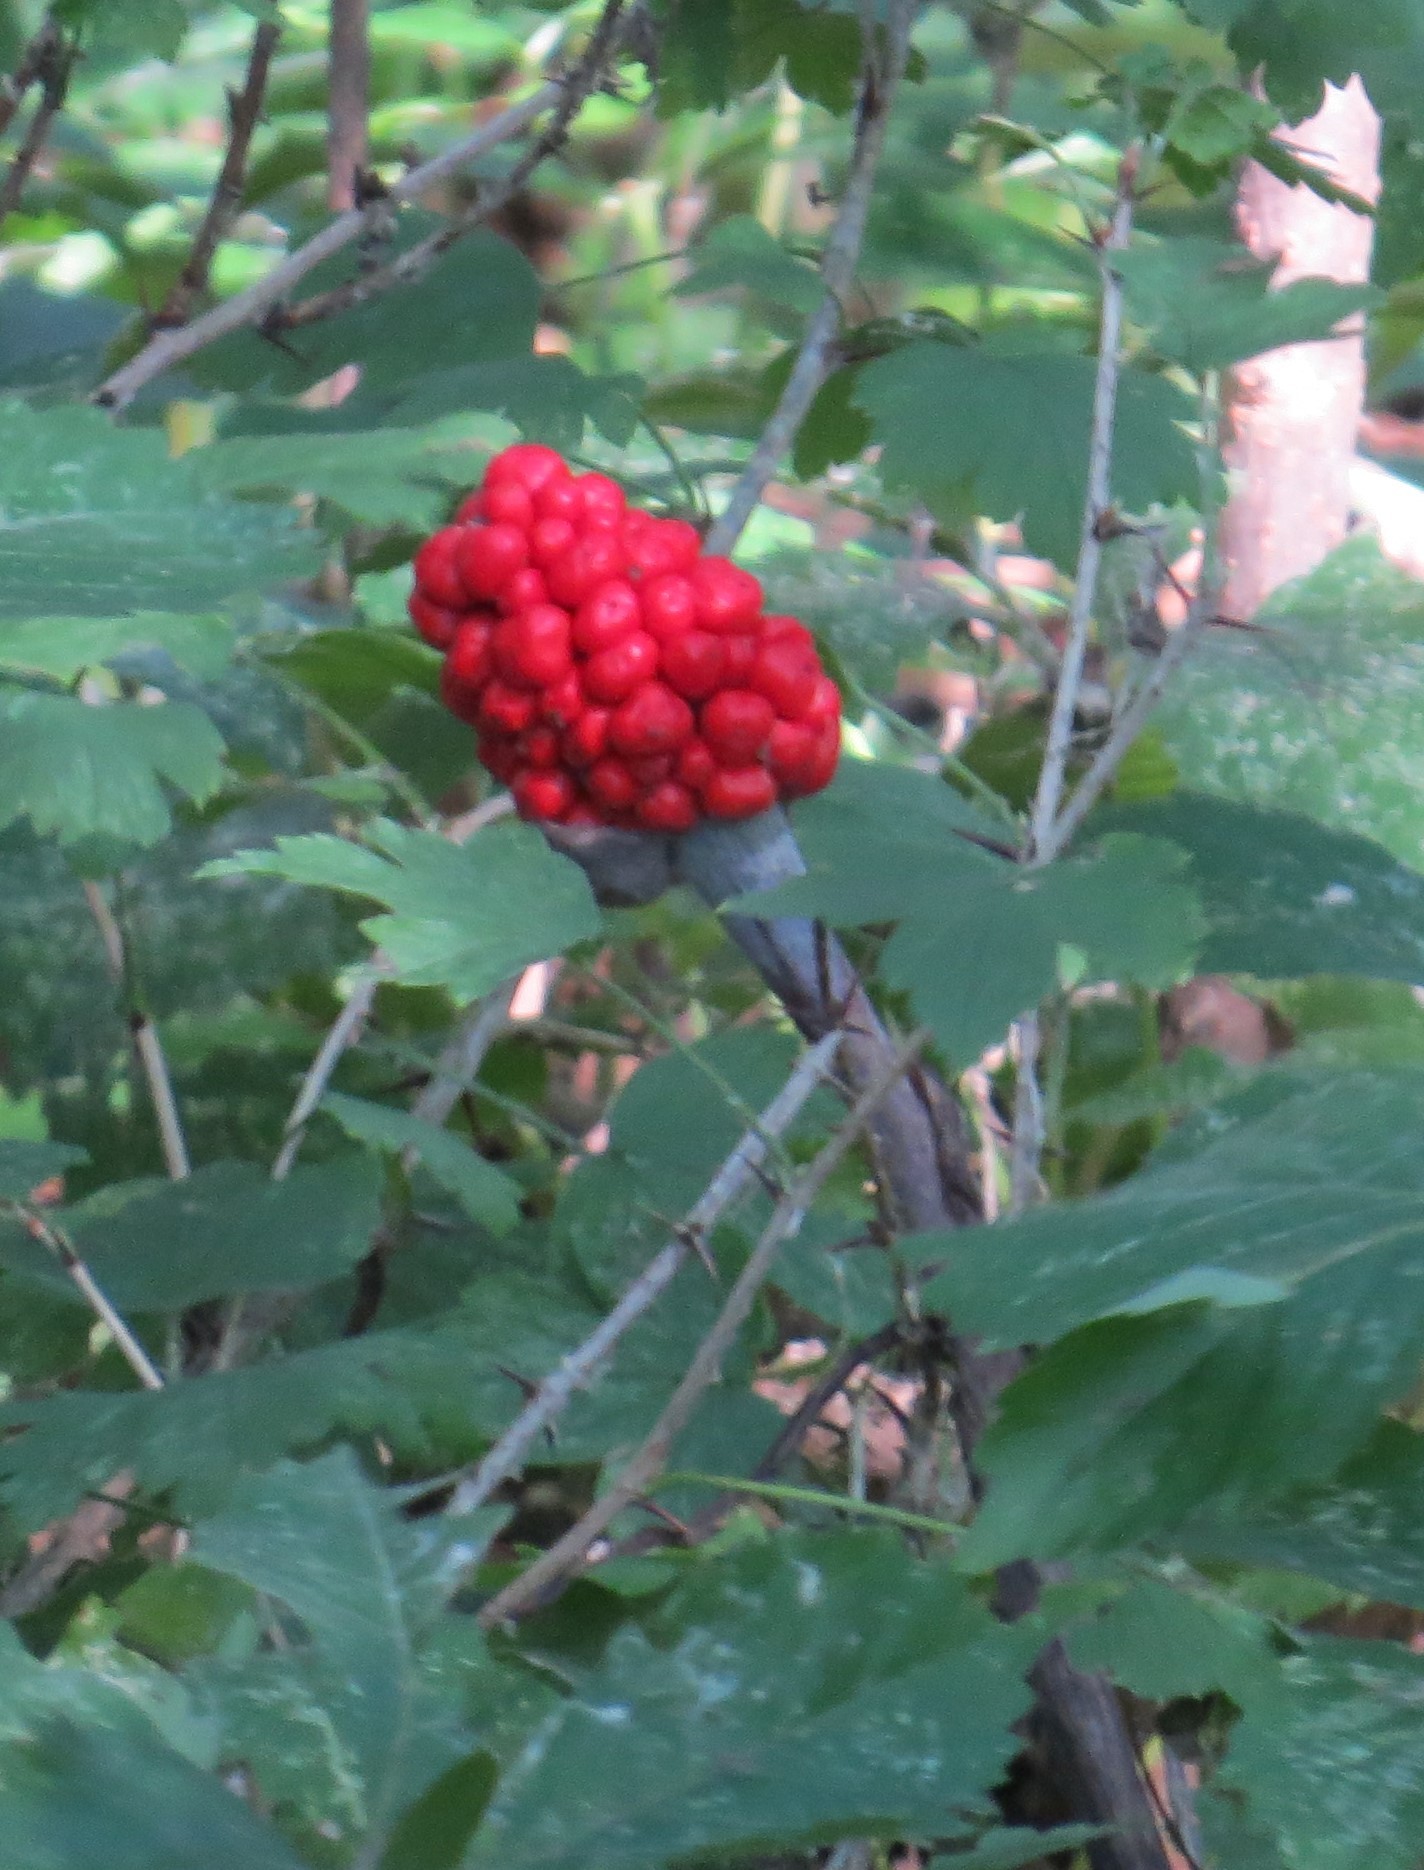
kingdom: Plantae
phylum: Tracheophyta
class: Liliopsida
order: Alismatales
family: Araceae
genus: Arisaema
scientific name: Arisaema triphyllum
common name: Jack-in-the-pulpit
